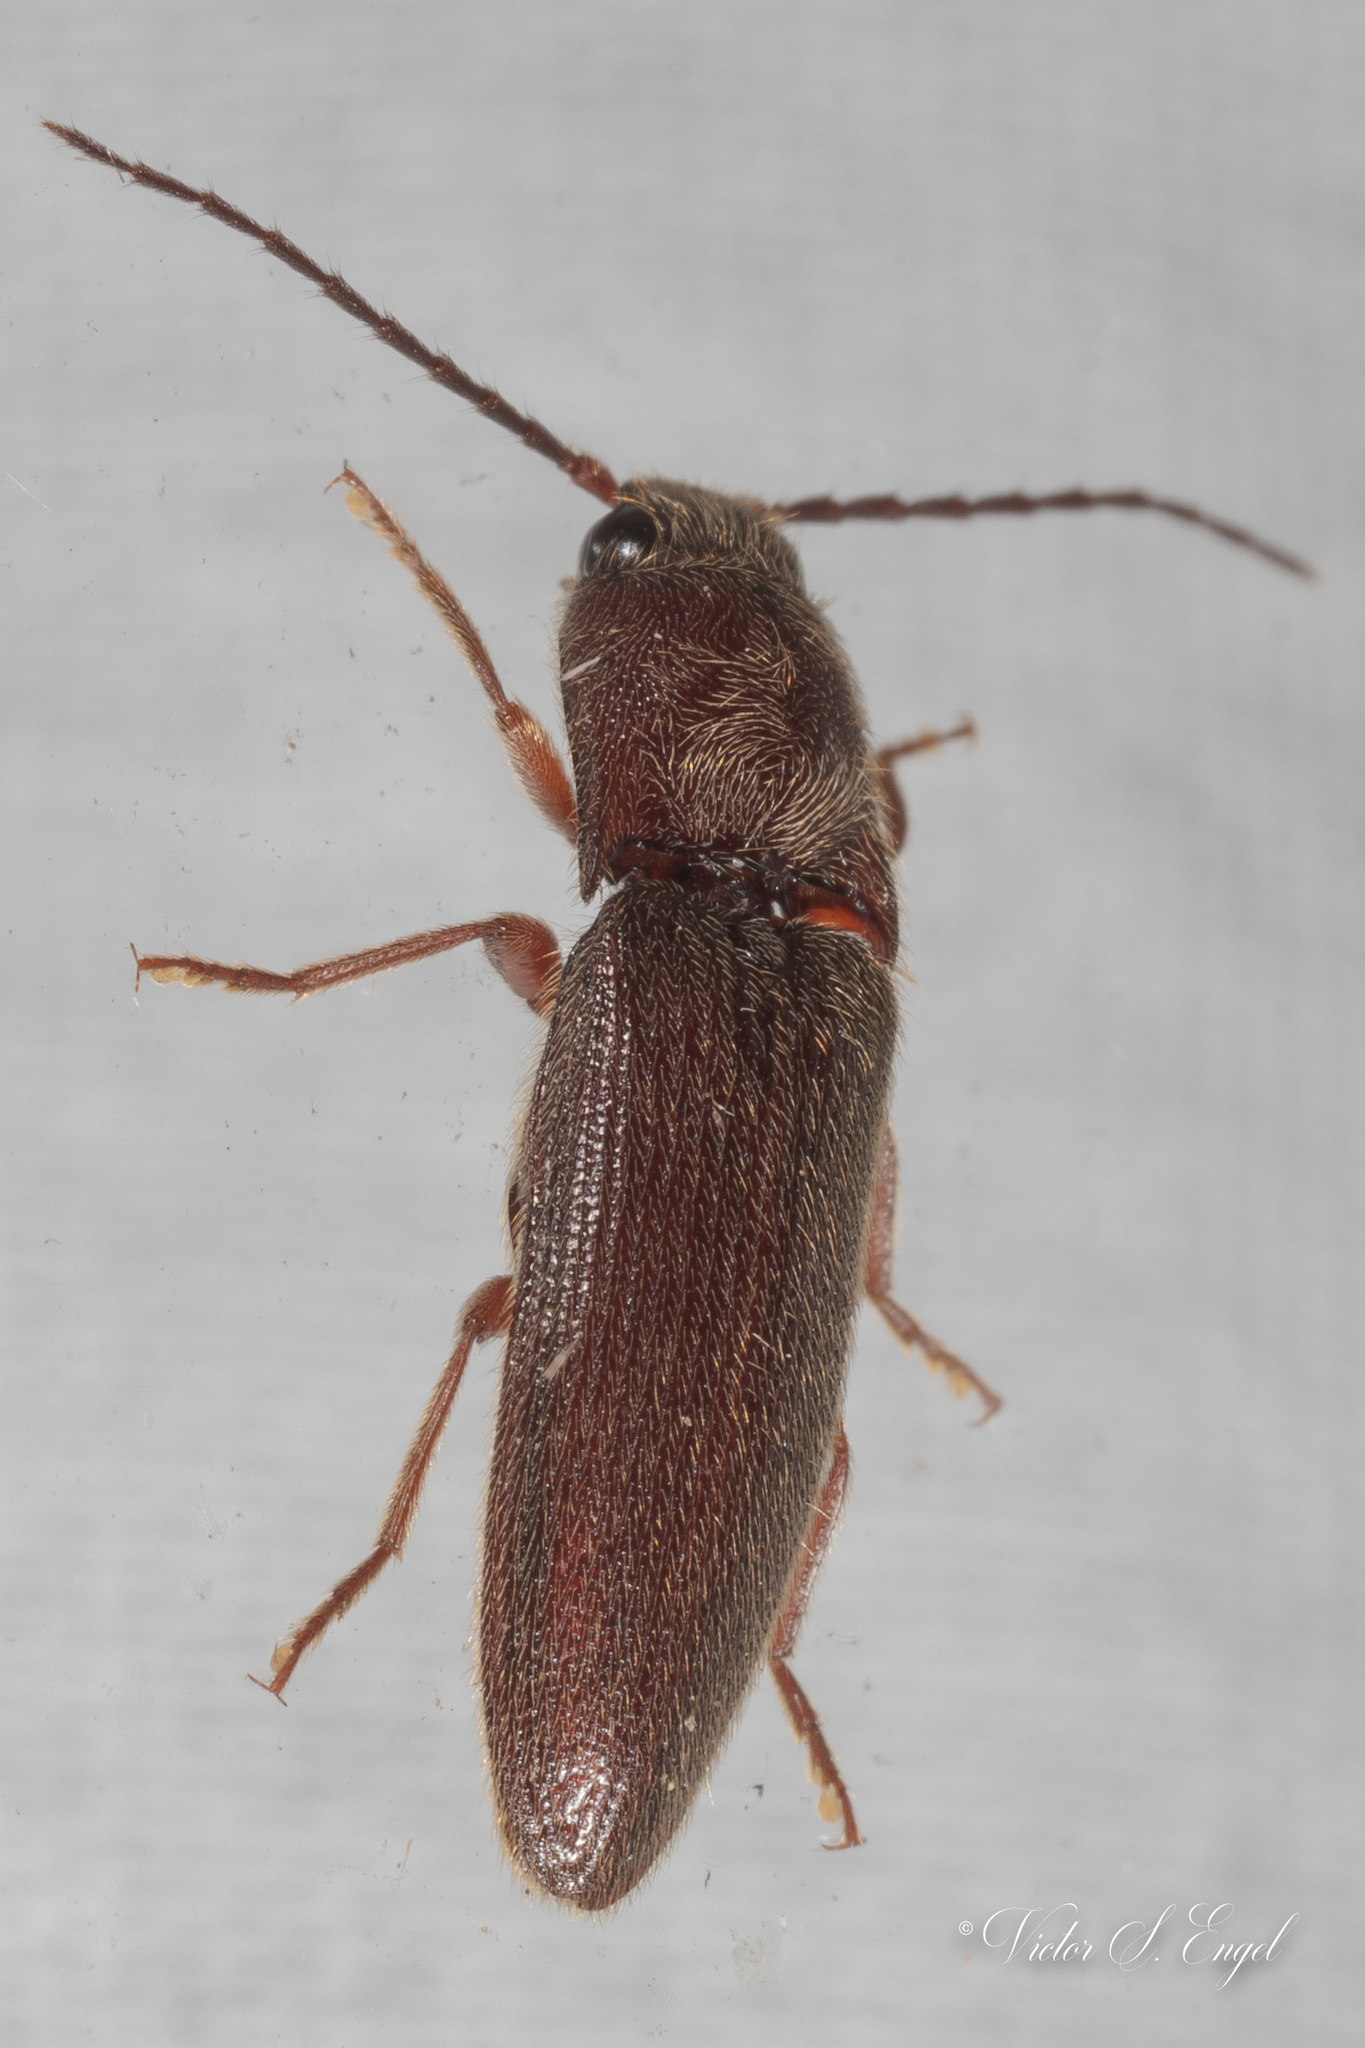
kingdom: Animalia
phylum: Arthropoda
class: Insecta
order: Coleoptera
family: Elateridae
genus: Dipropus
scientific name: Dipropus
